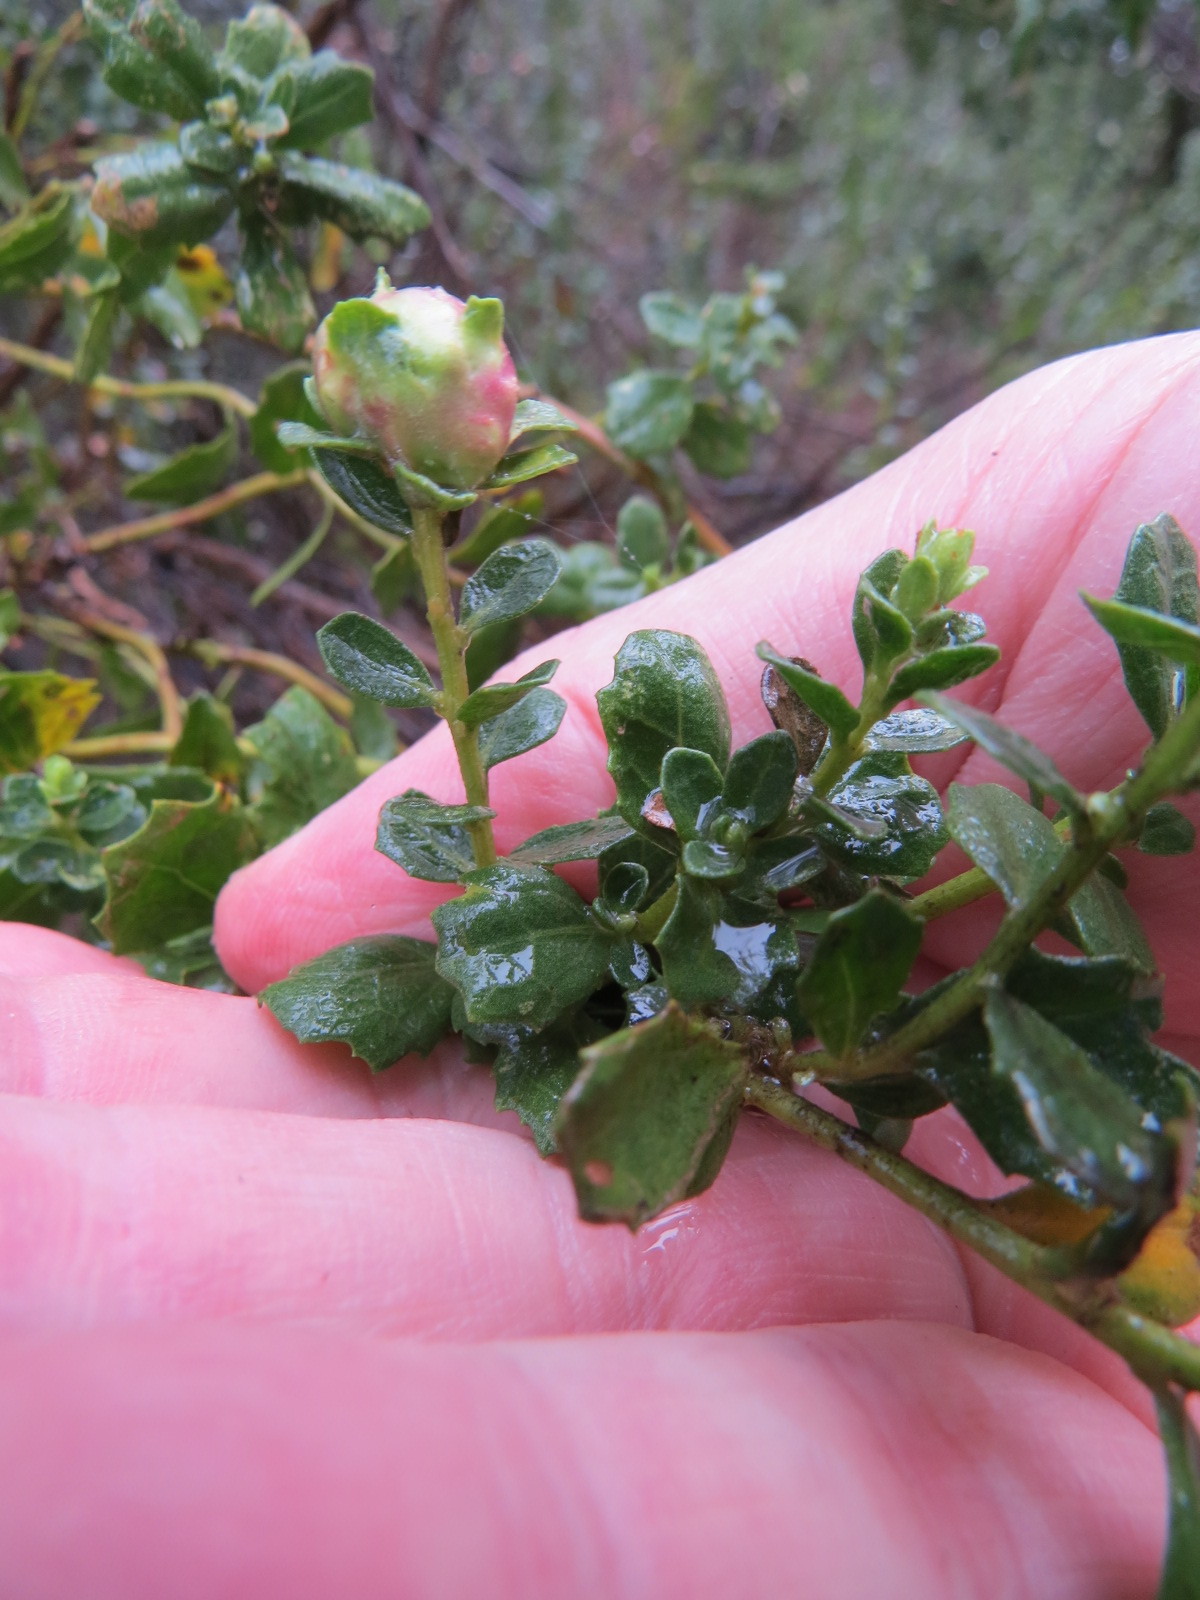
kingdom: Animalia
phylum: Arthropoda
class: Insecta
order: Diptera
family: Cecidomyiidae
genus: Rhopalomyia
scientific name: Rhopalomyia californica
